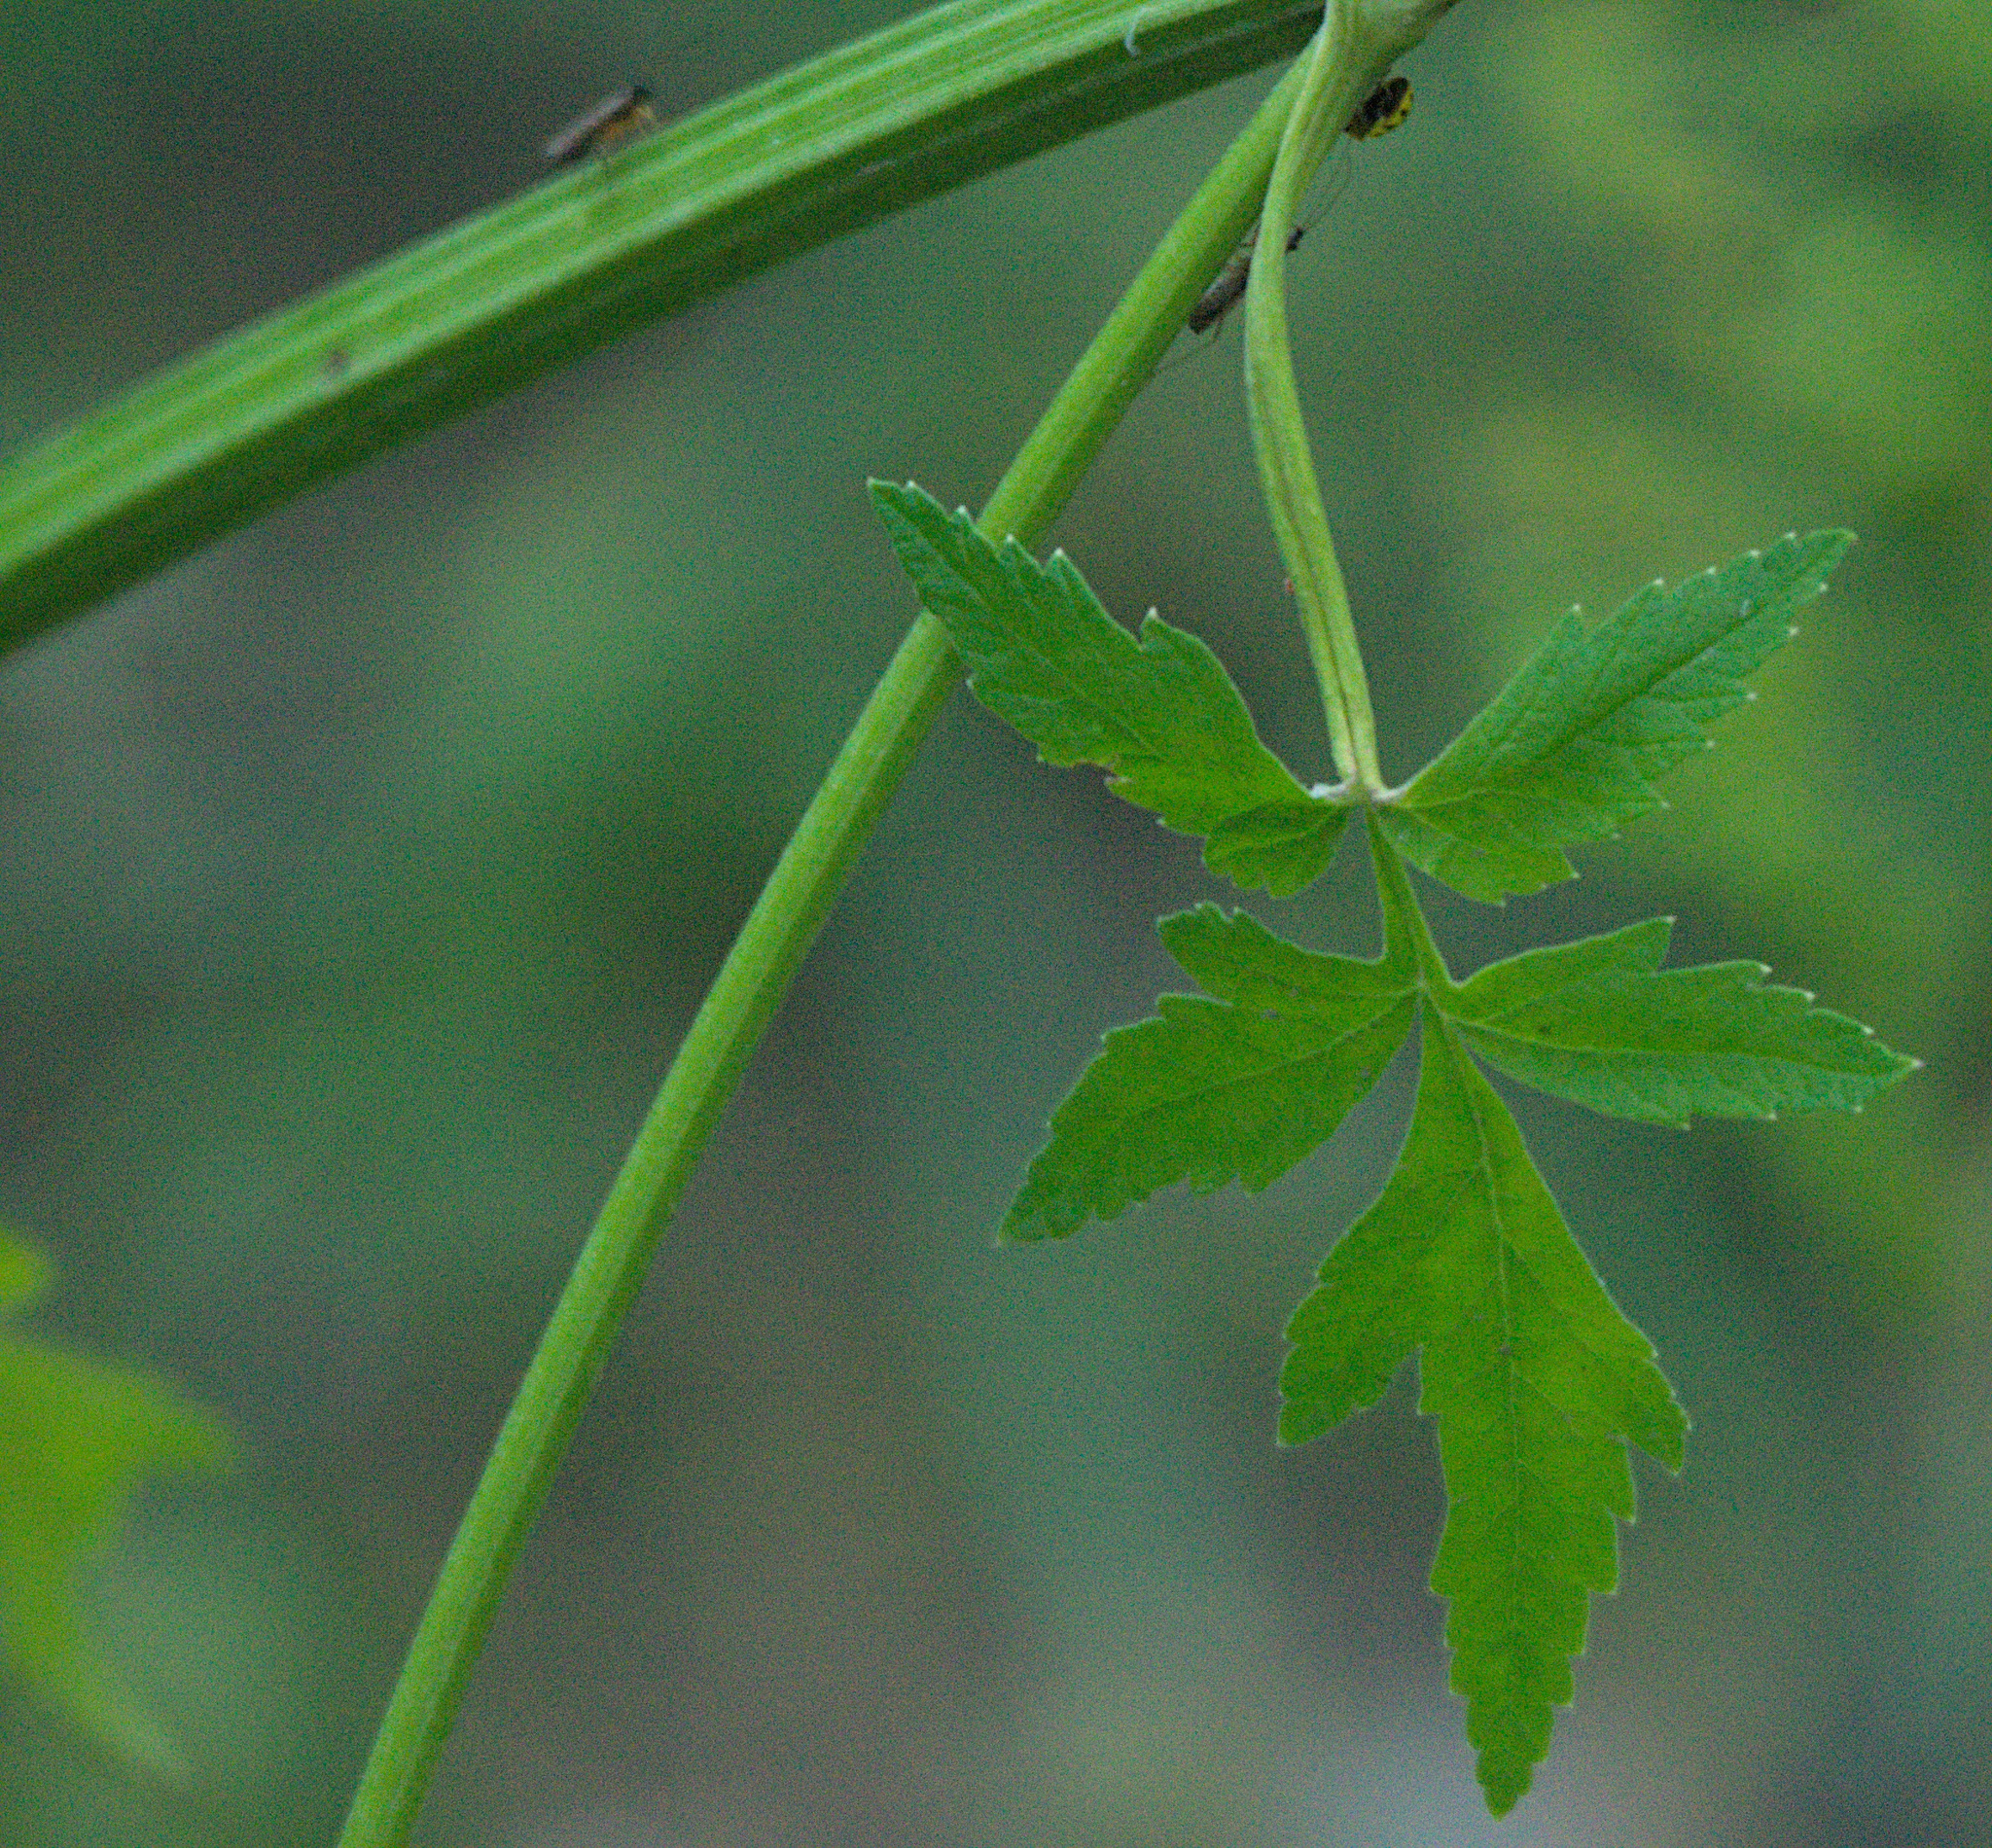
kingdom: Plantae
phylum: Tracheophyta
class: Magnoliopsida
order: Apiales
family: Apiaceae
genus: Pastinaca
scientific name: Pastinaca sativa
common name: Wild parsnip
